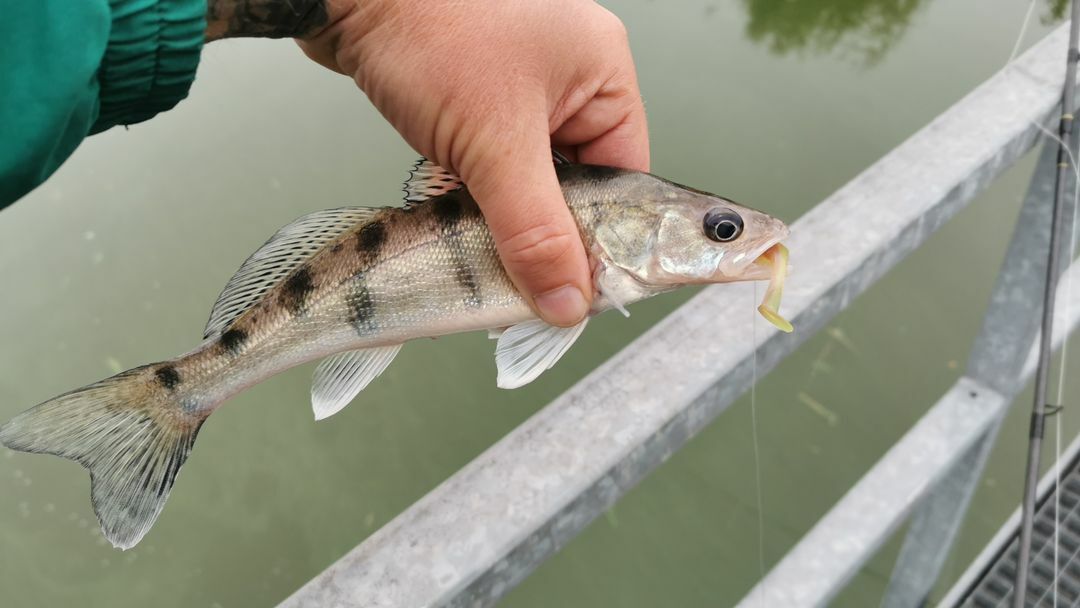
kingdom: Animalia
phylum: Chordata
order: Perciformes
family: Percidae
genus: Sander
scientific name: Sander volgensis
